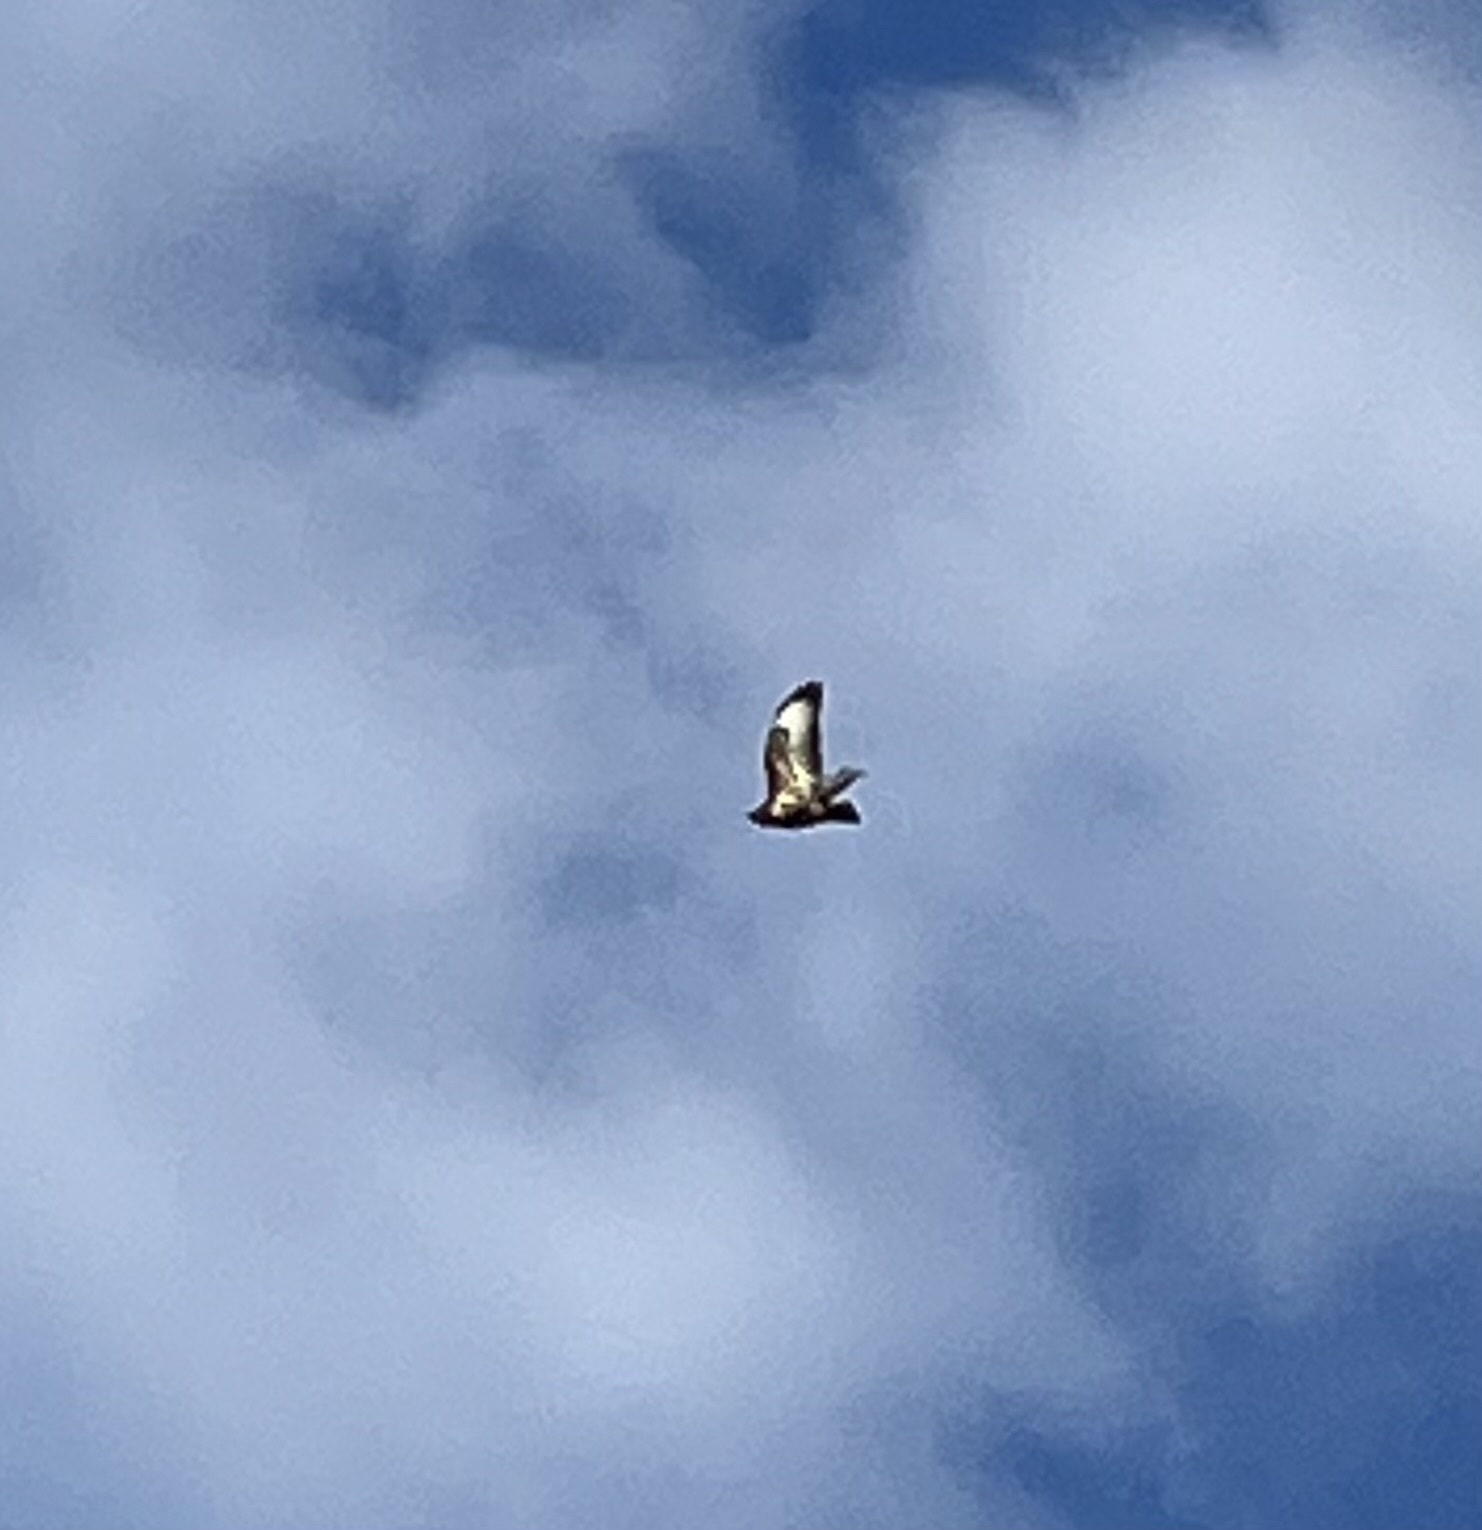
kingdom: Animalia
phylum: Chordata
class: Aves
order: Accipitriformes
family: Accipitridae
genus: Buteo
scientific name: Buteo buteo
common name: Common buzzard
